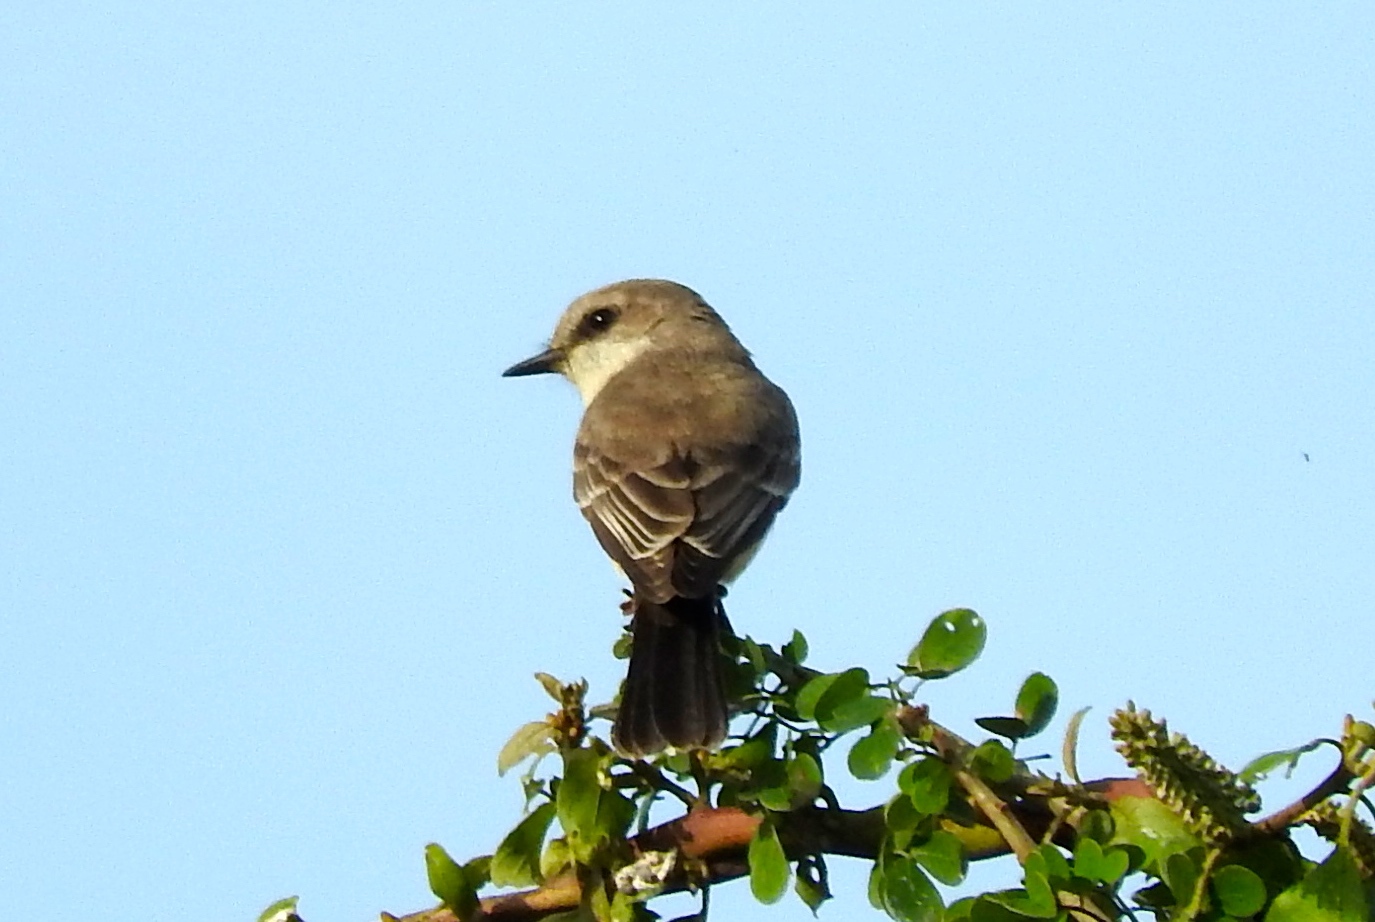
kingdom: Animalia
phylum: Chordata
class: Aves
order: Passeriformes
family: Tyrannidae
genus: Pyrocephalus
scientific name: Pyrocephalus rubinus
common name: Vermilion flycatcher
